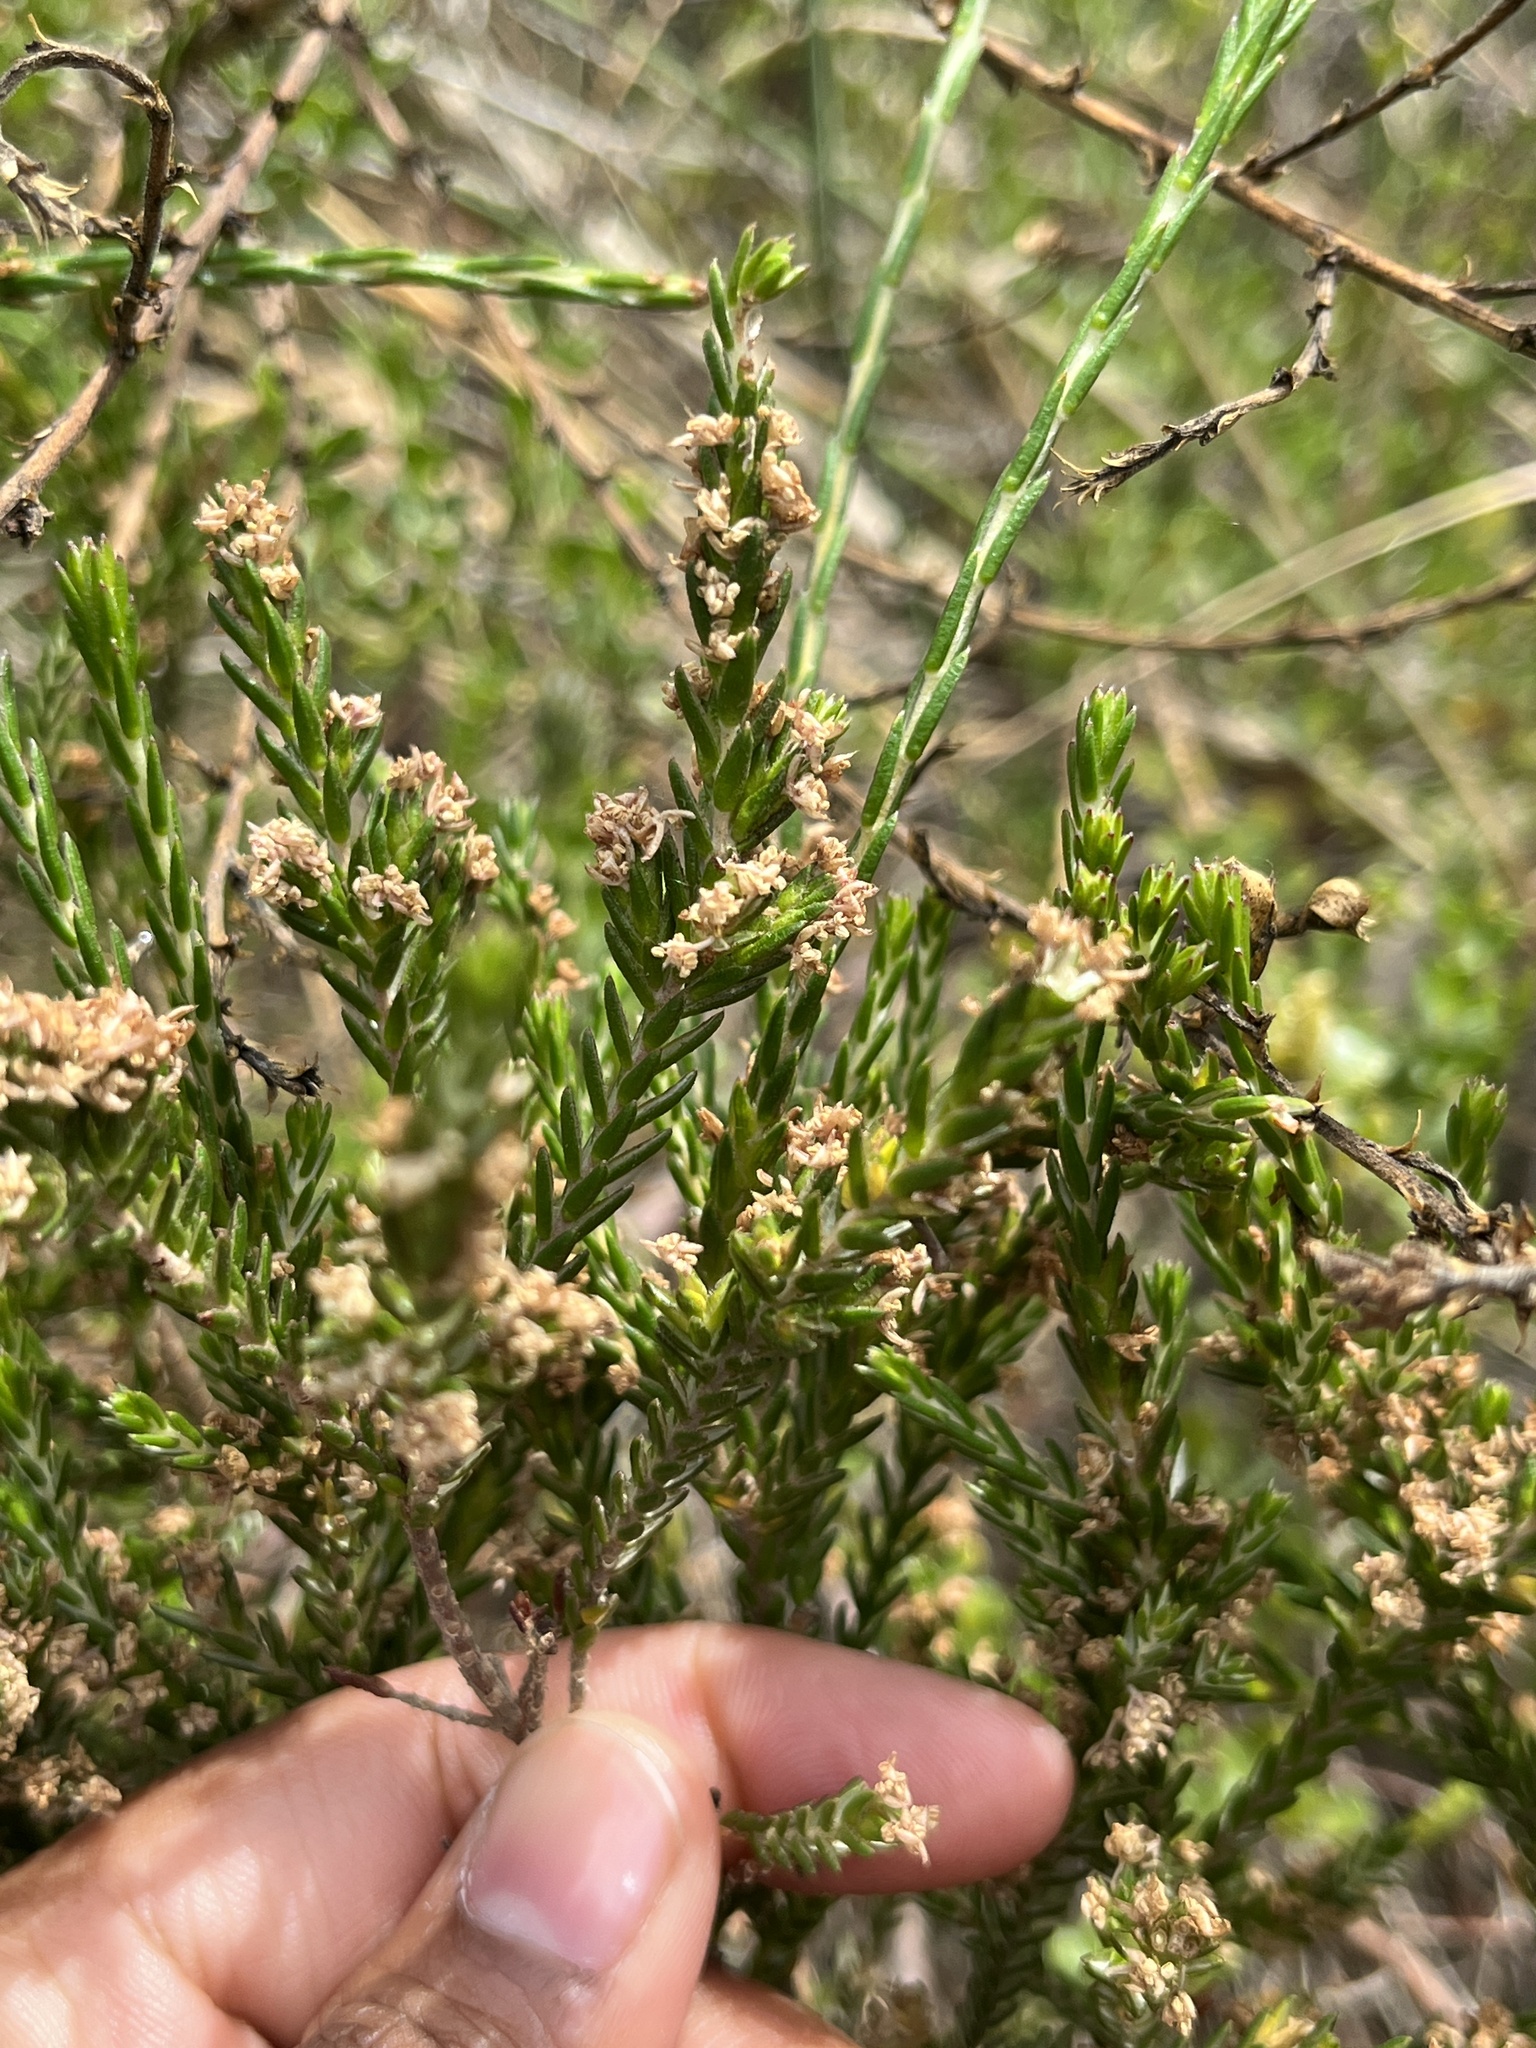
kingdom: Plantae
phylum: Tracheophyta
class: Magnoliopsida
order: Malvales
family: Thymelaeaceae
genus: Passerina
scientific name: Passerina paludosa
